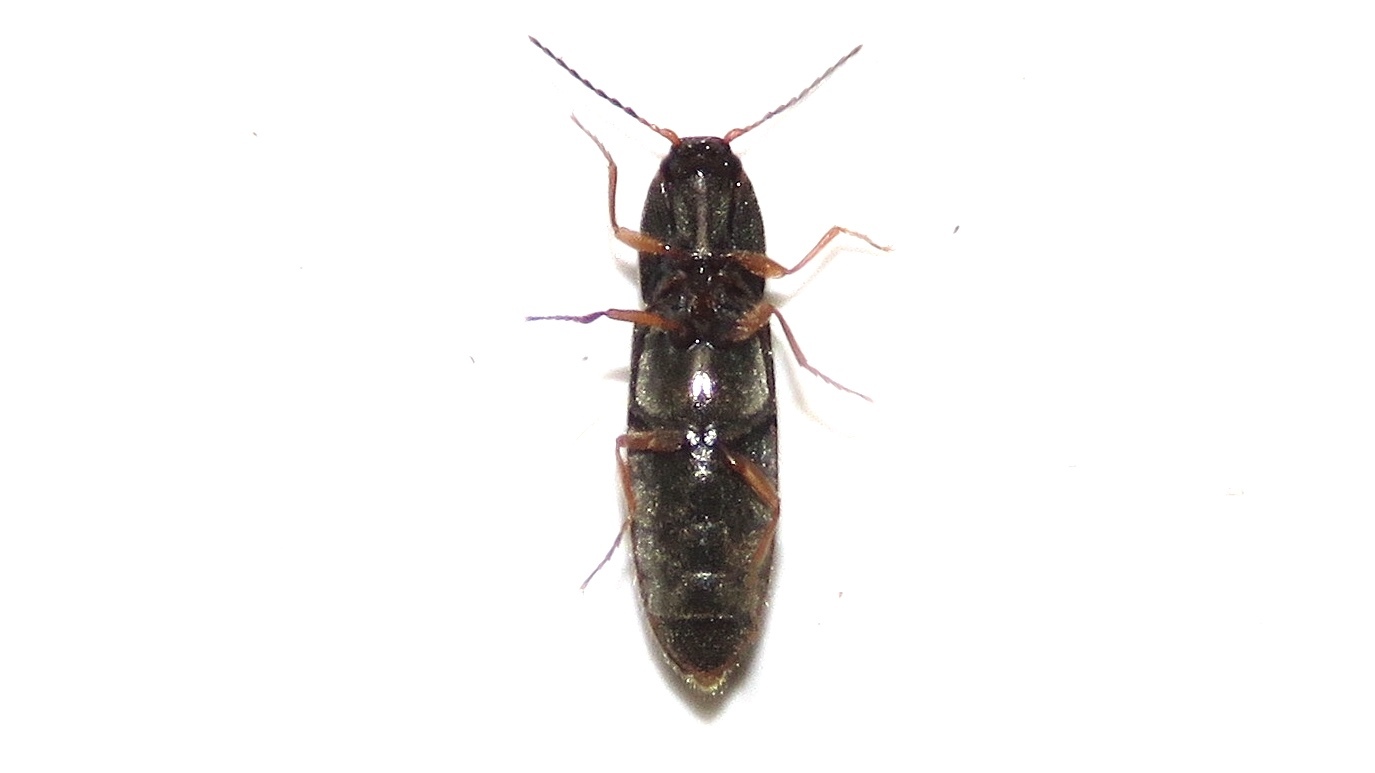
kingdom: Animalia
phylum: Arthropoda
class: Insecta
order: Coleoptera
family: Elateridae
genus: Limonius
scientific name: Limonius quercinus
